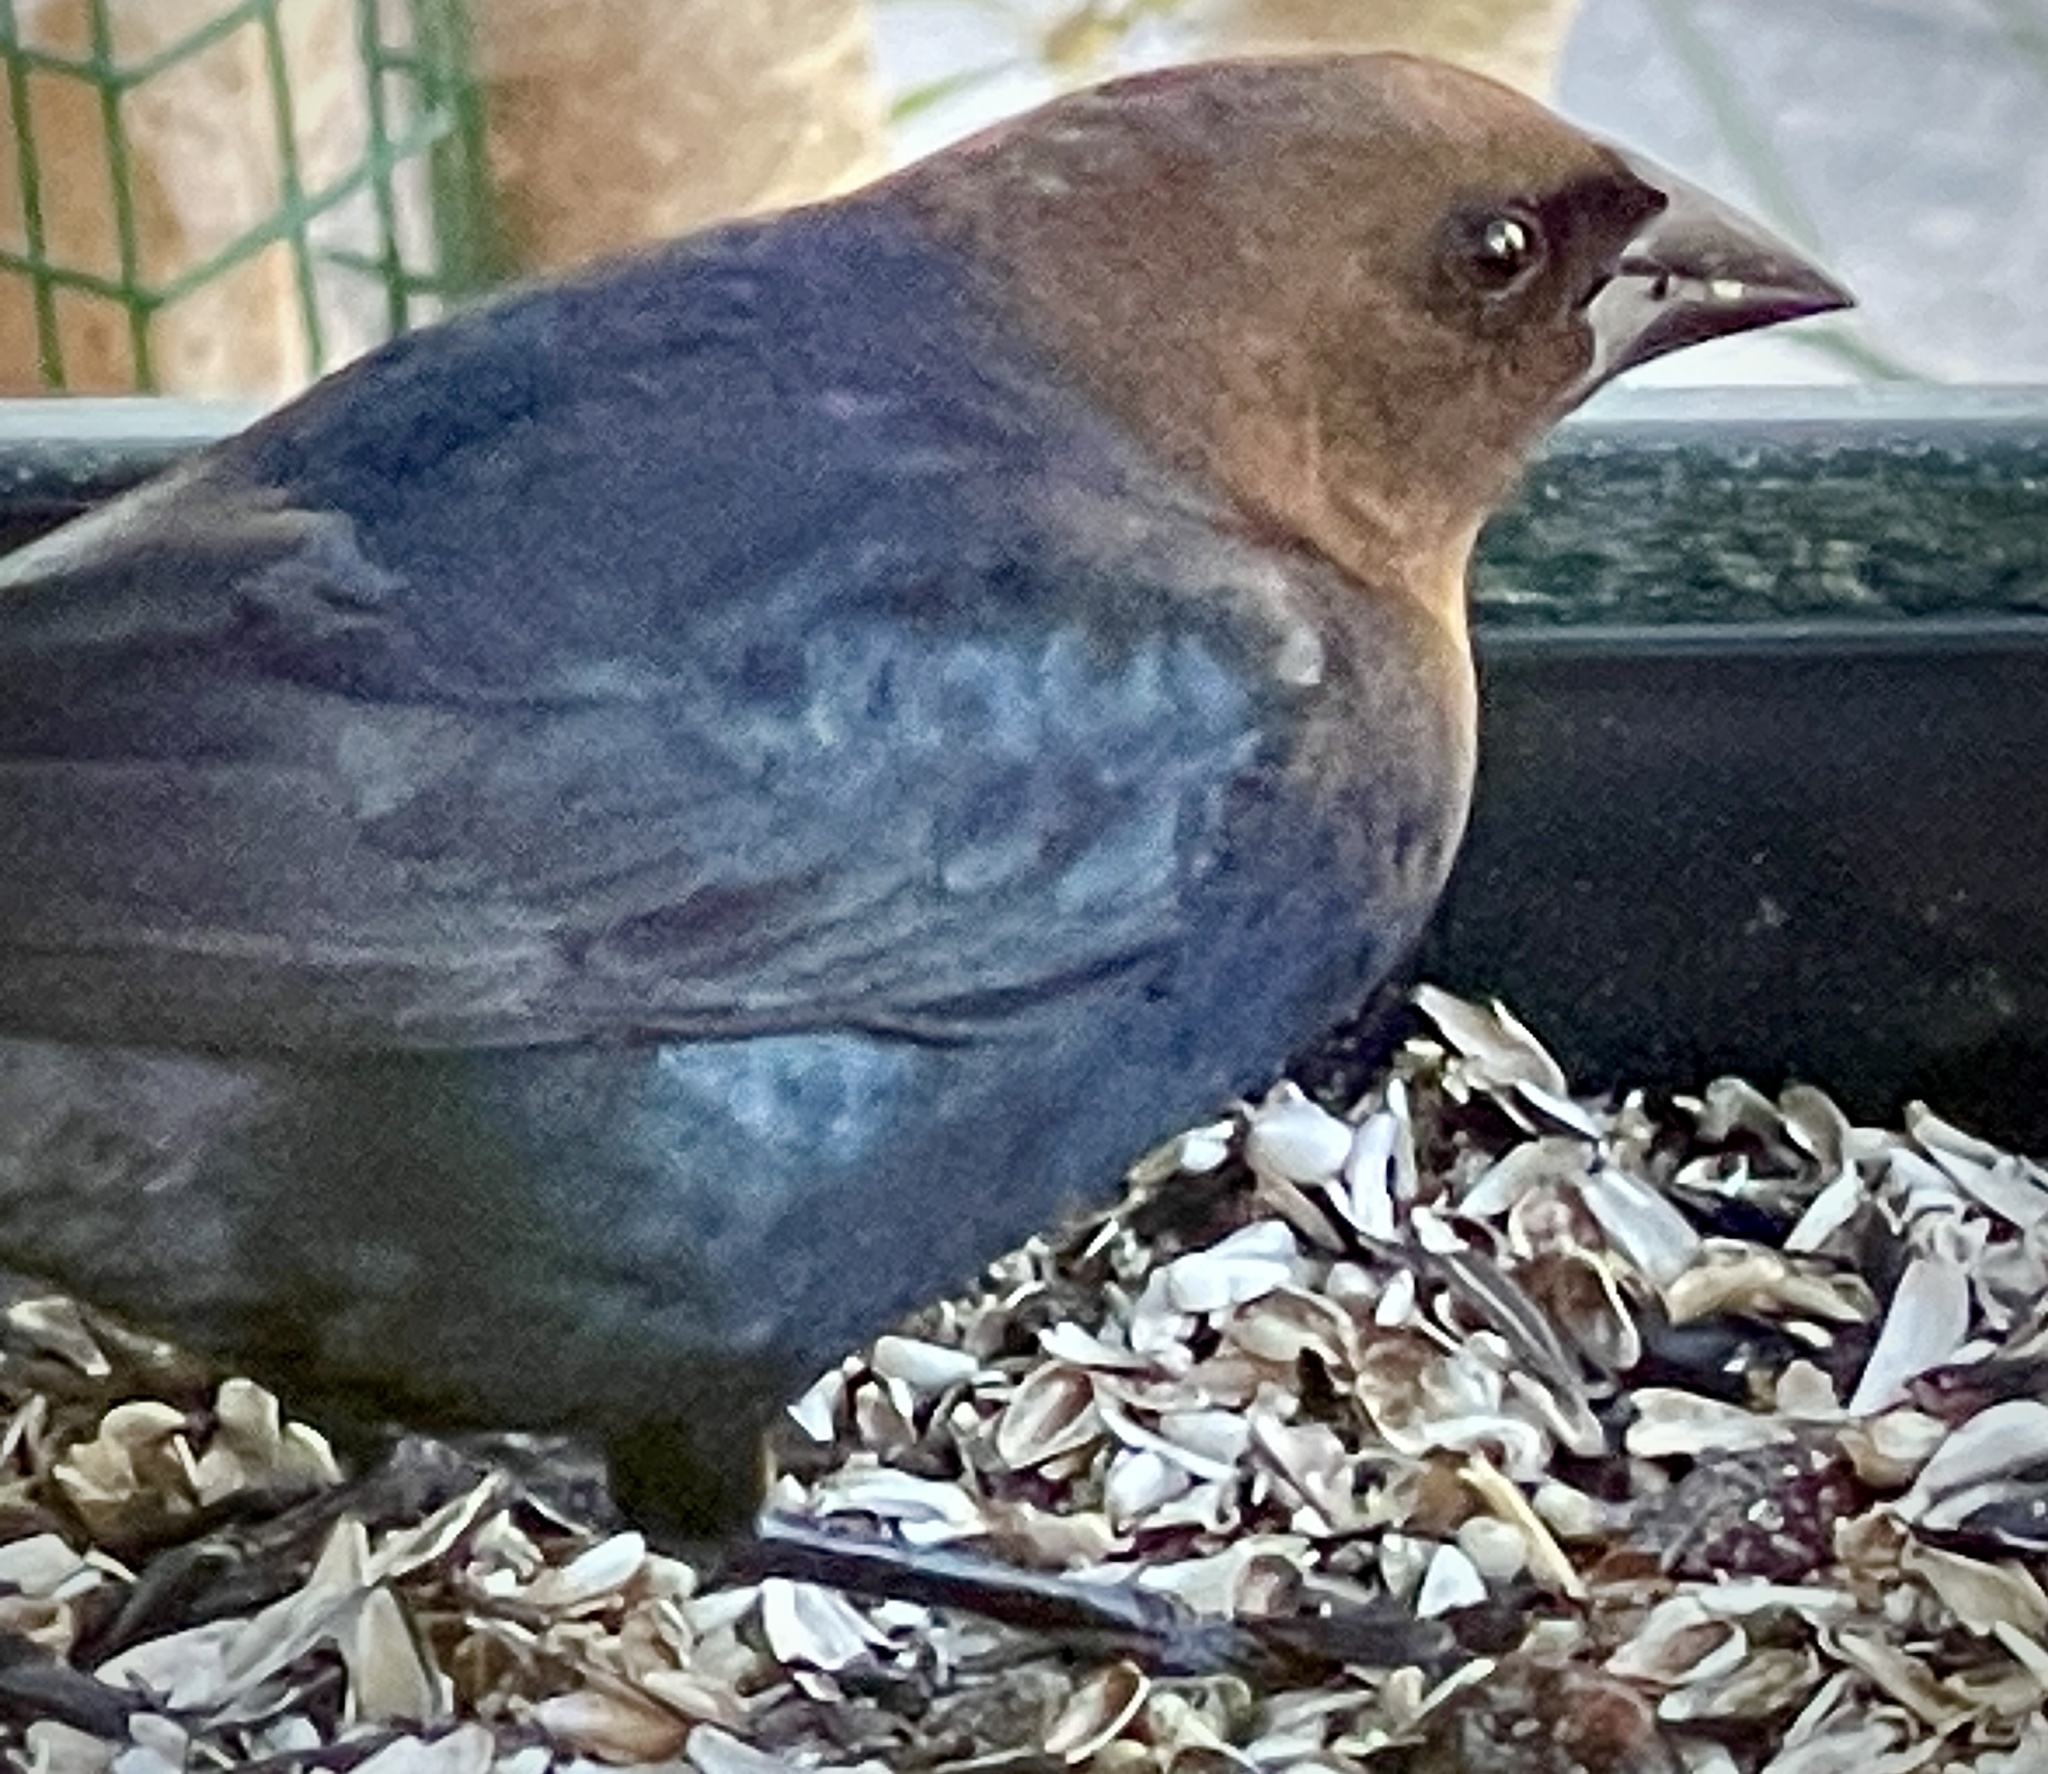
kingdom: Animalia
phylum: Chordata
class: Aves
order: Passeriformes
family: Icteridae
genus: Molothrus
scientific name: Molothrus ater
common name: Brown-headed cowbird
